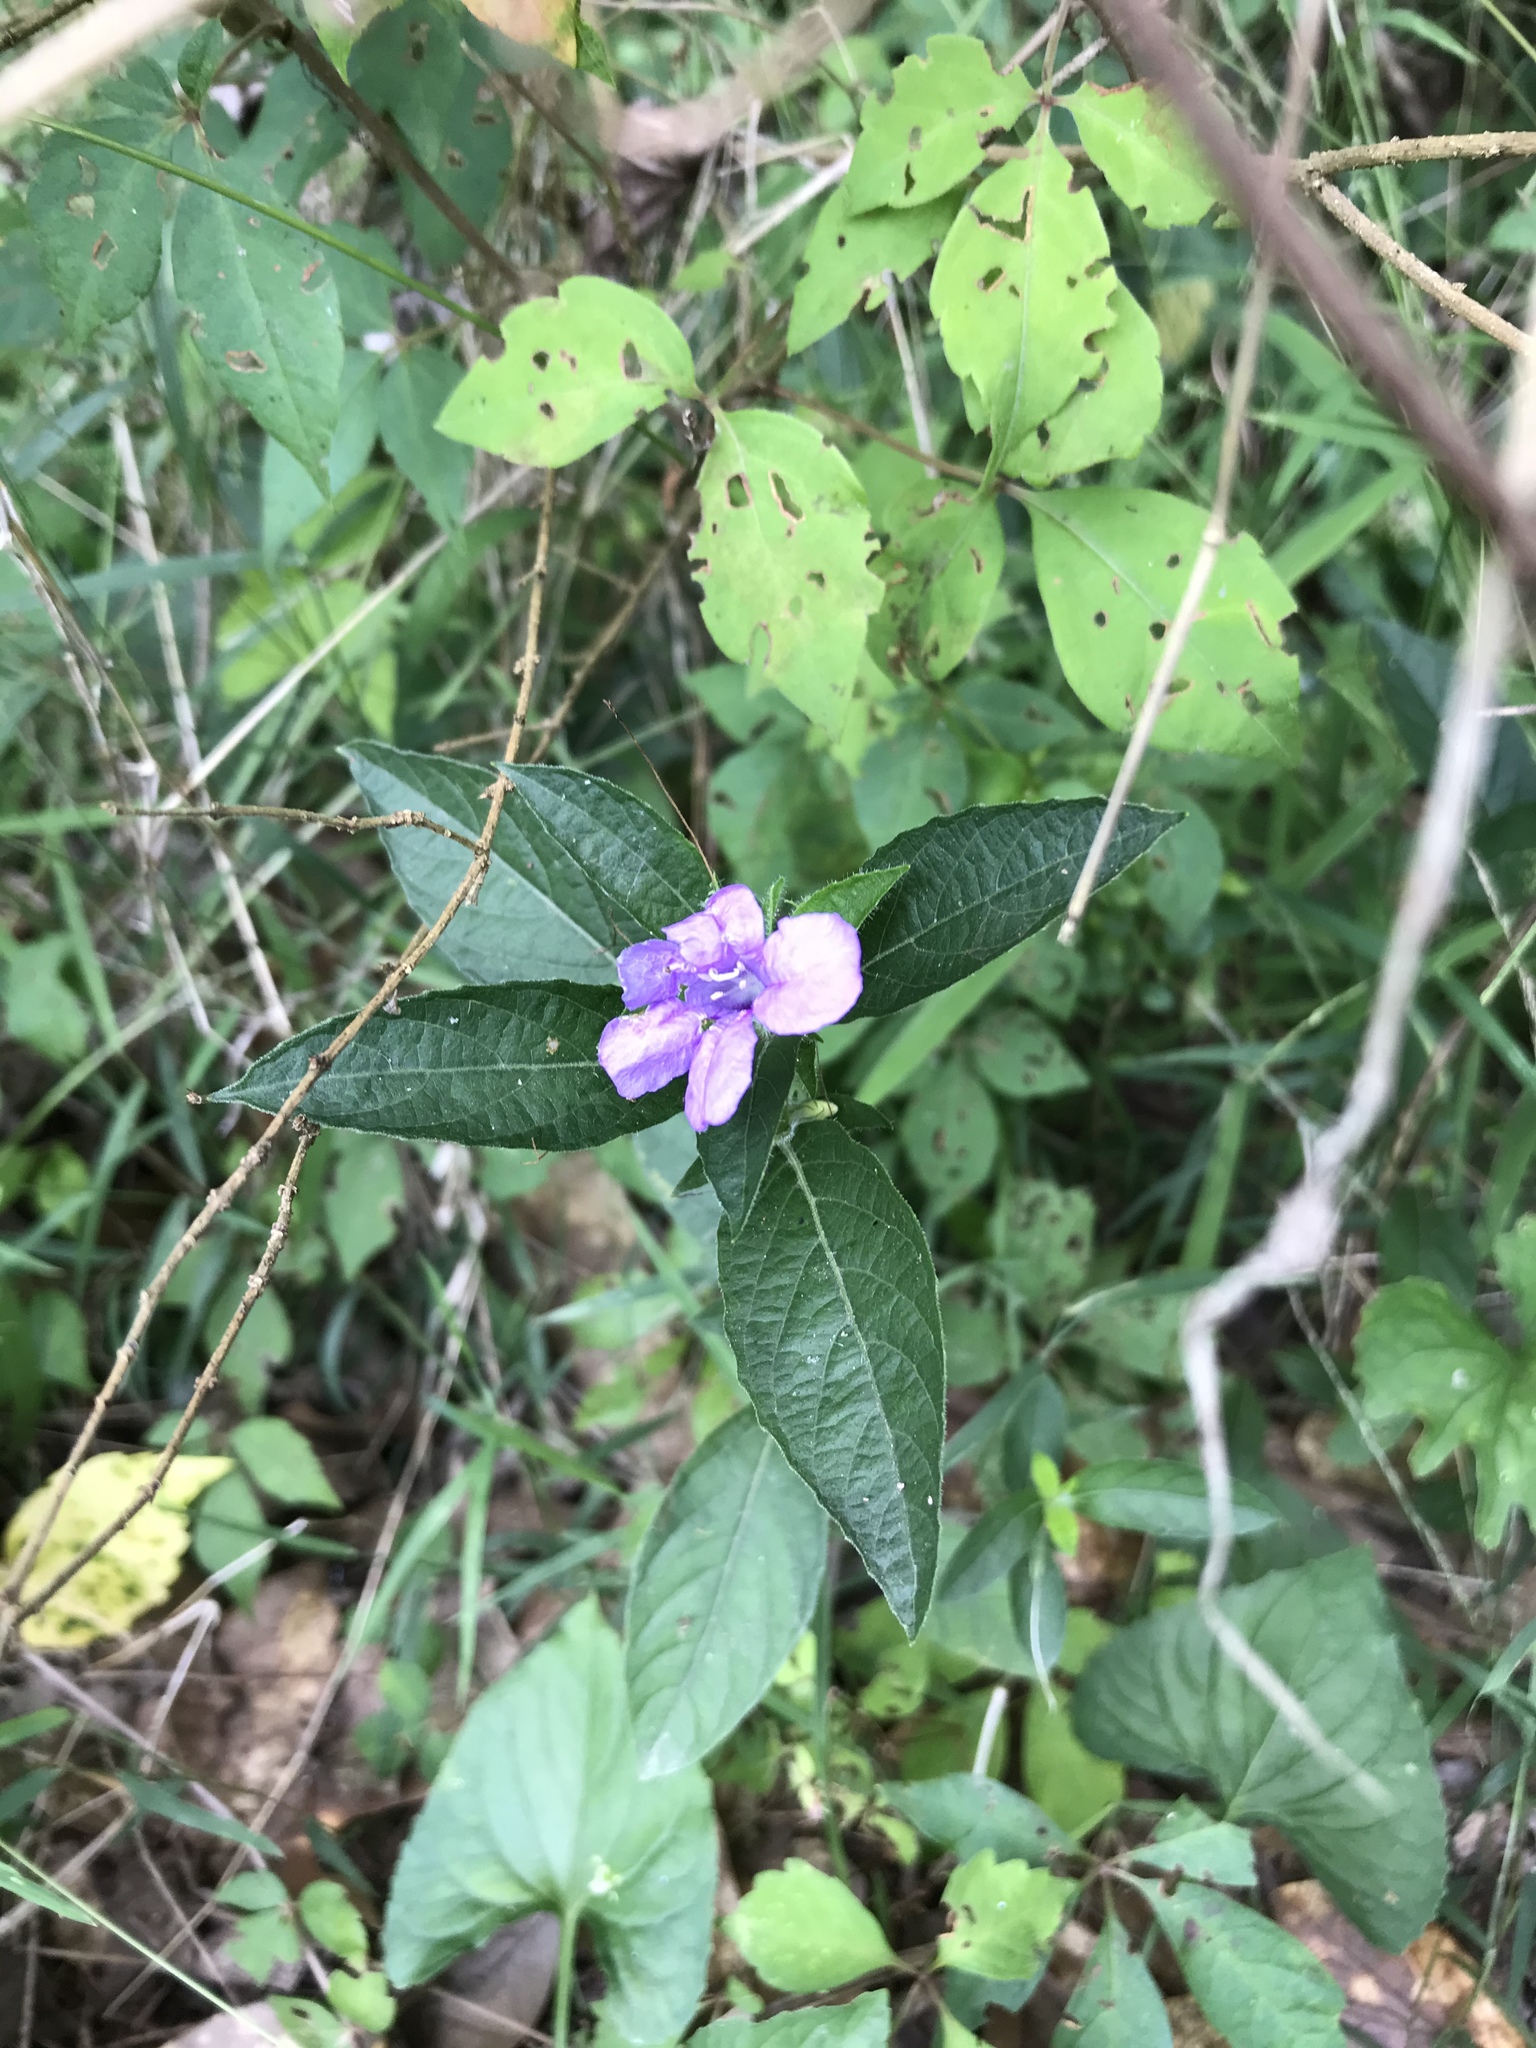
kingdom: Plantae
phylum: Tracheophyta
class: Magnoliopsida
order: Lamiales
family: Acanthaceae
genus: Ruellia
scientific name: Ruellia caroliniensis
